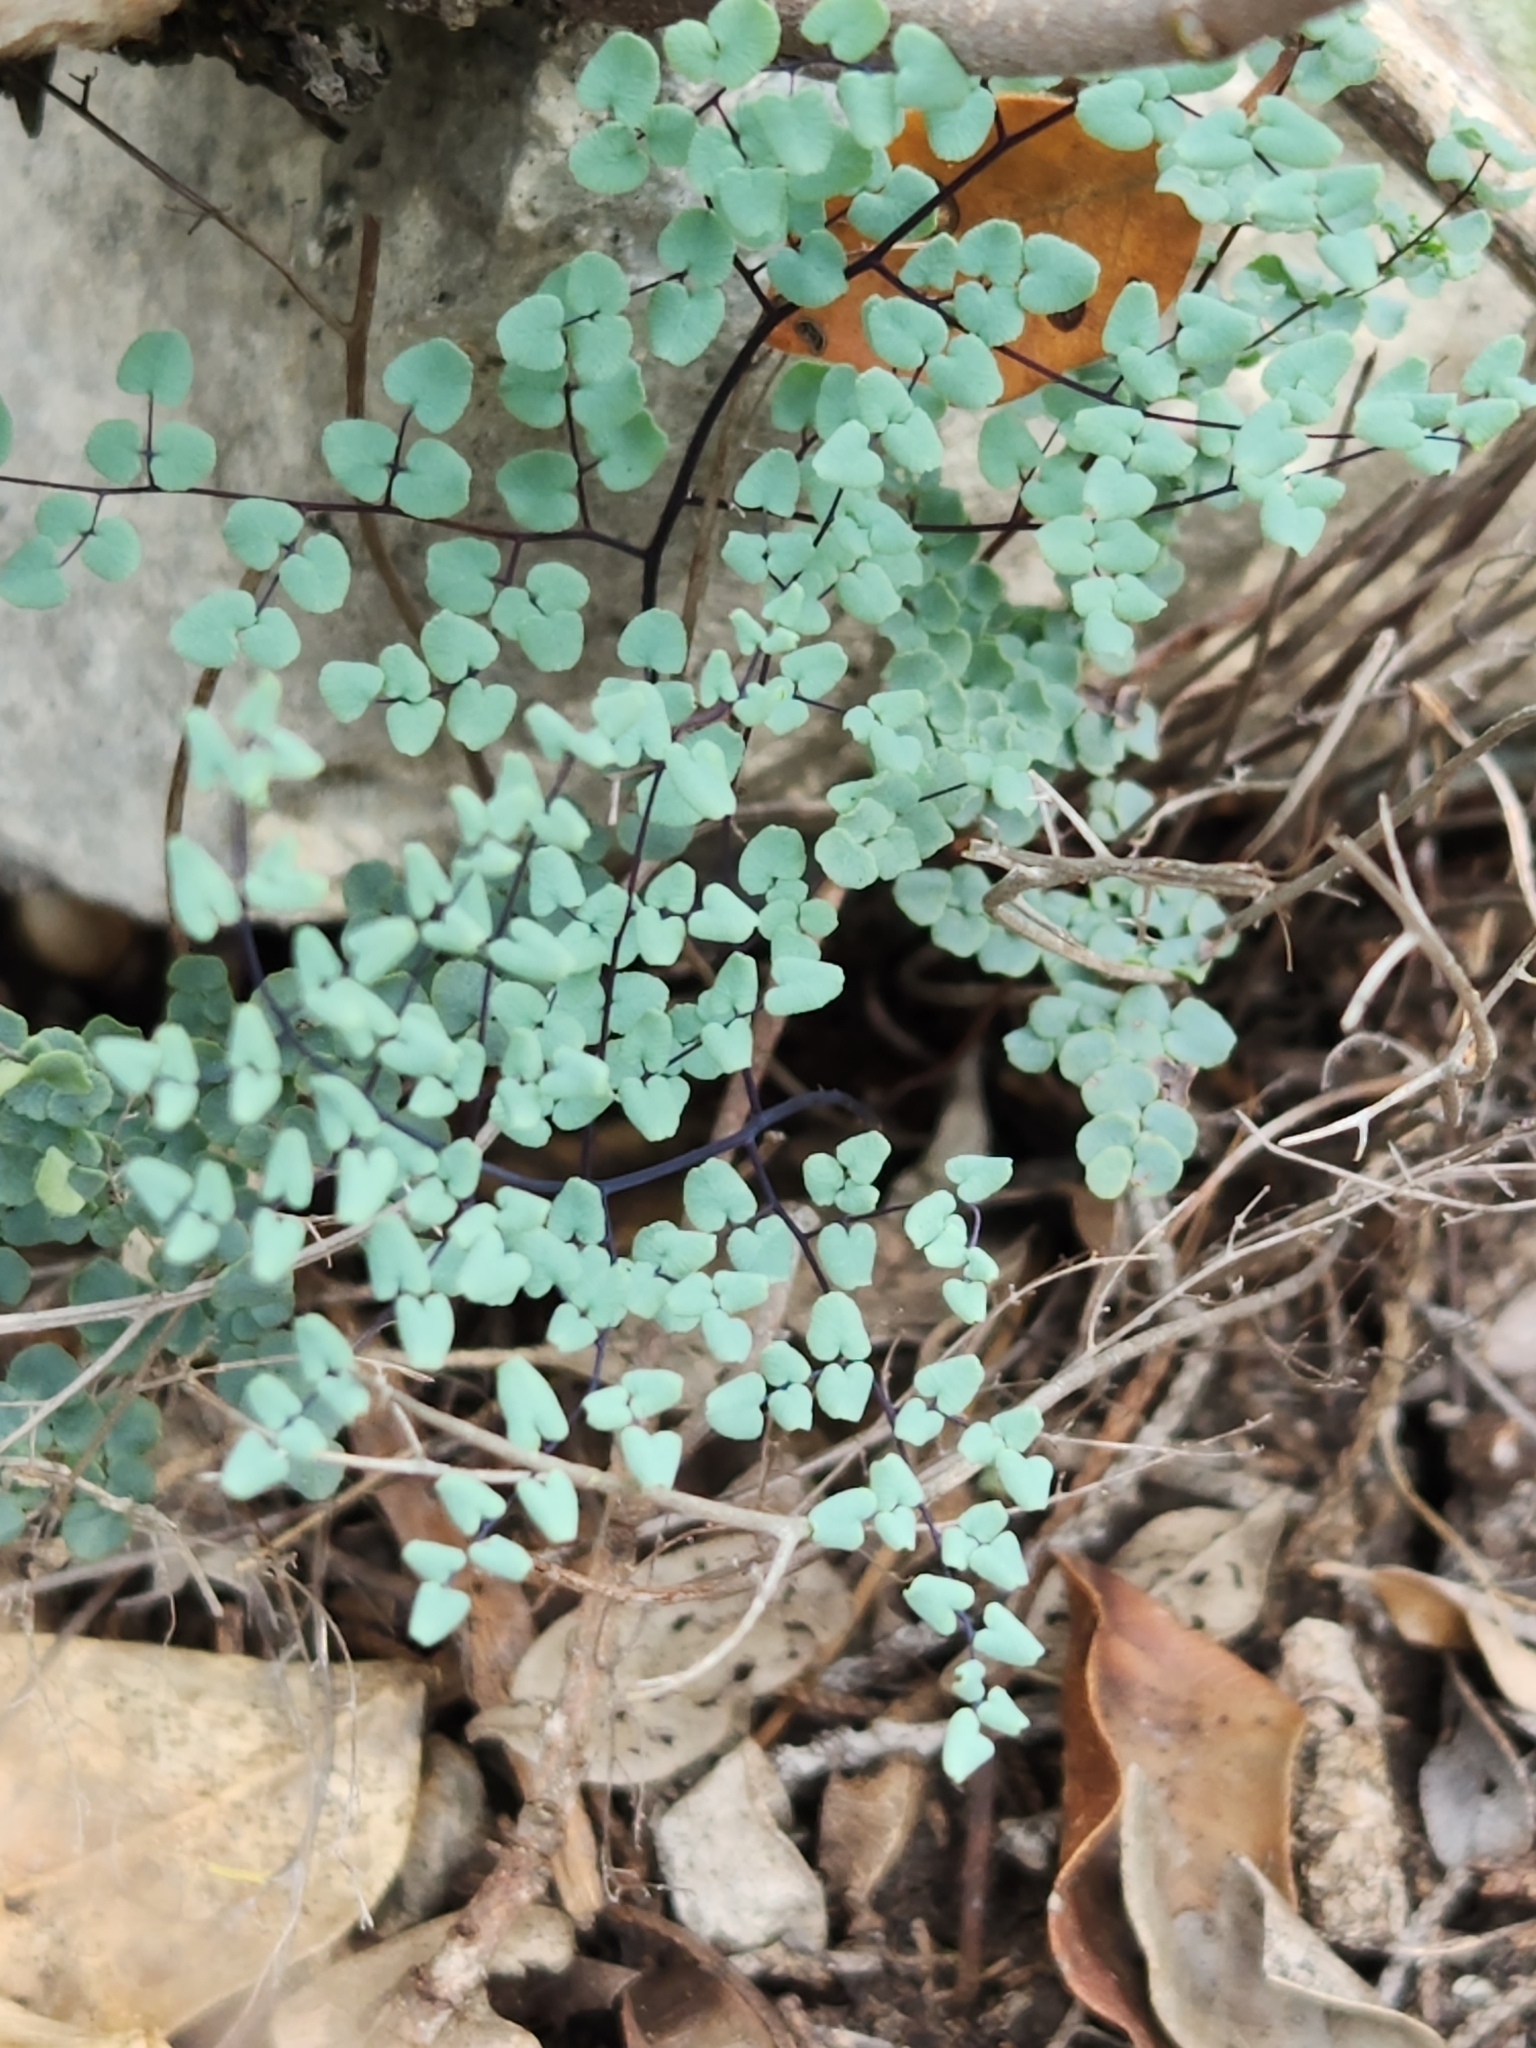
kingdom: Plantae
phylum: Tracheophyta
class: Polypodiopsida
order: Polypodiales
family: Pteridaceae
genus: Argyrochosma
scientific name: Argyrochosma microphylla
